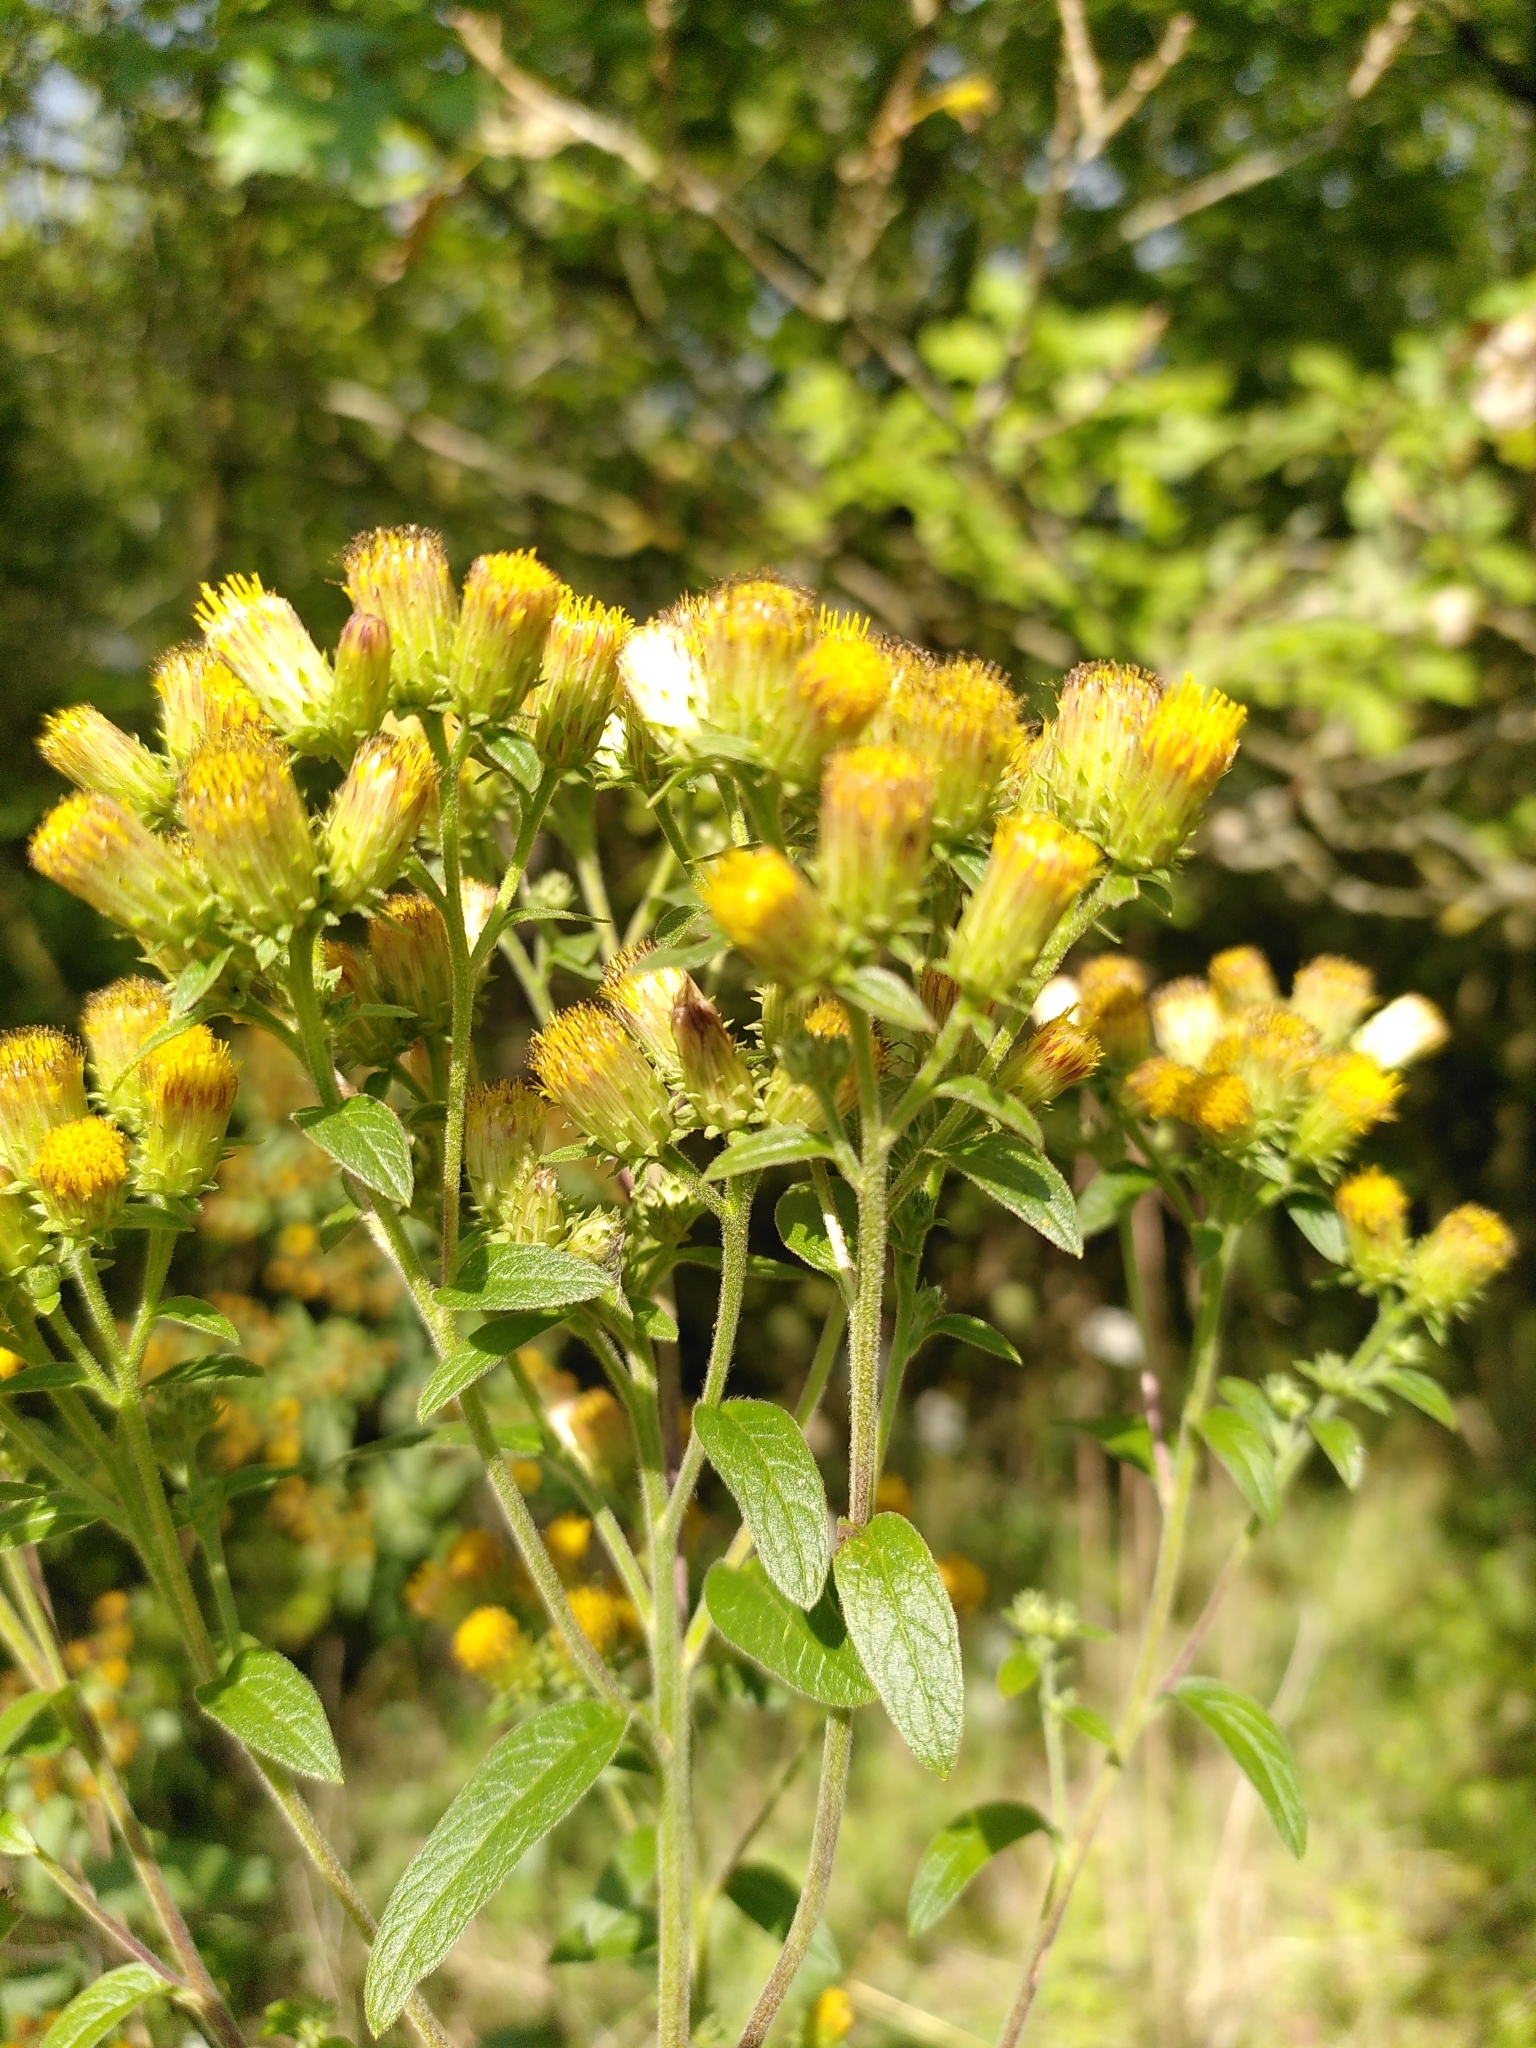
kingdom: Plantae
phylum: Tracheophyta
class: Magnoliopsida
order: Asterales
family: Asteraceae
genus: Pentanema
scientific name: Pentanema squarrosum
